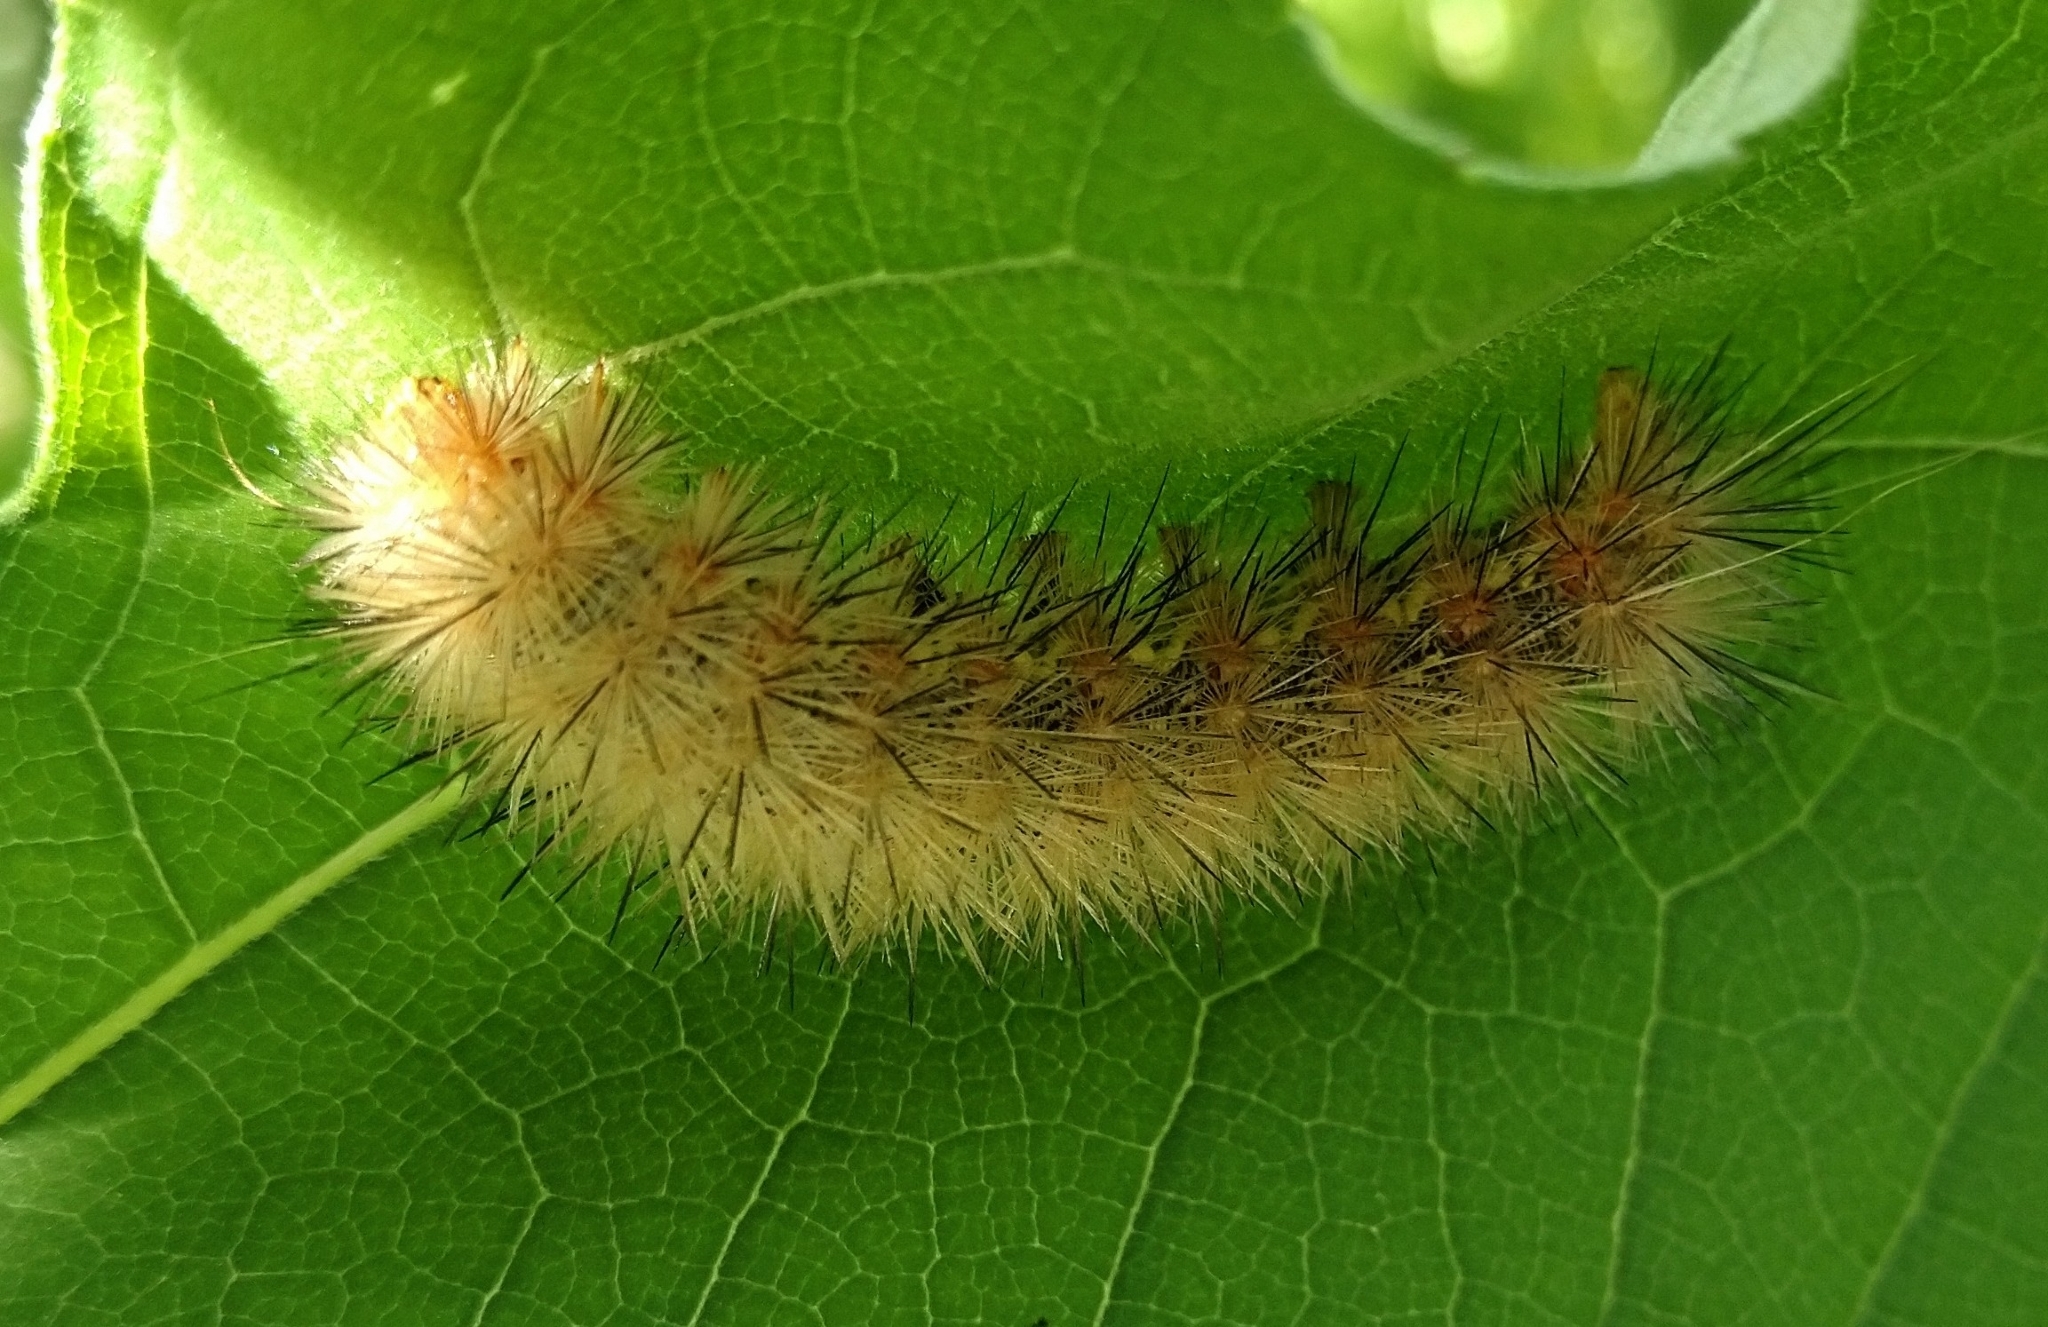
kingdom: Animalia
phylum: Arthropoda
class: Insecta
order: Lepidoptera
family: Erebidae
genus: Hypercompe
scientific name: Hypercompe suffusa
